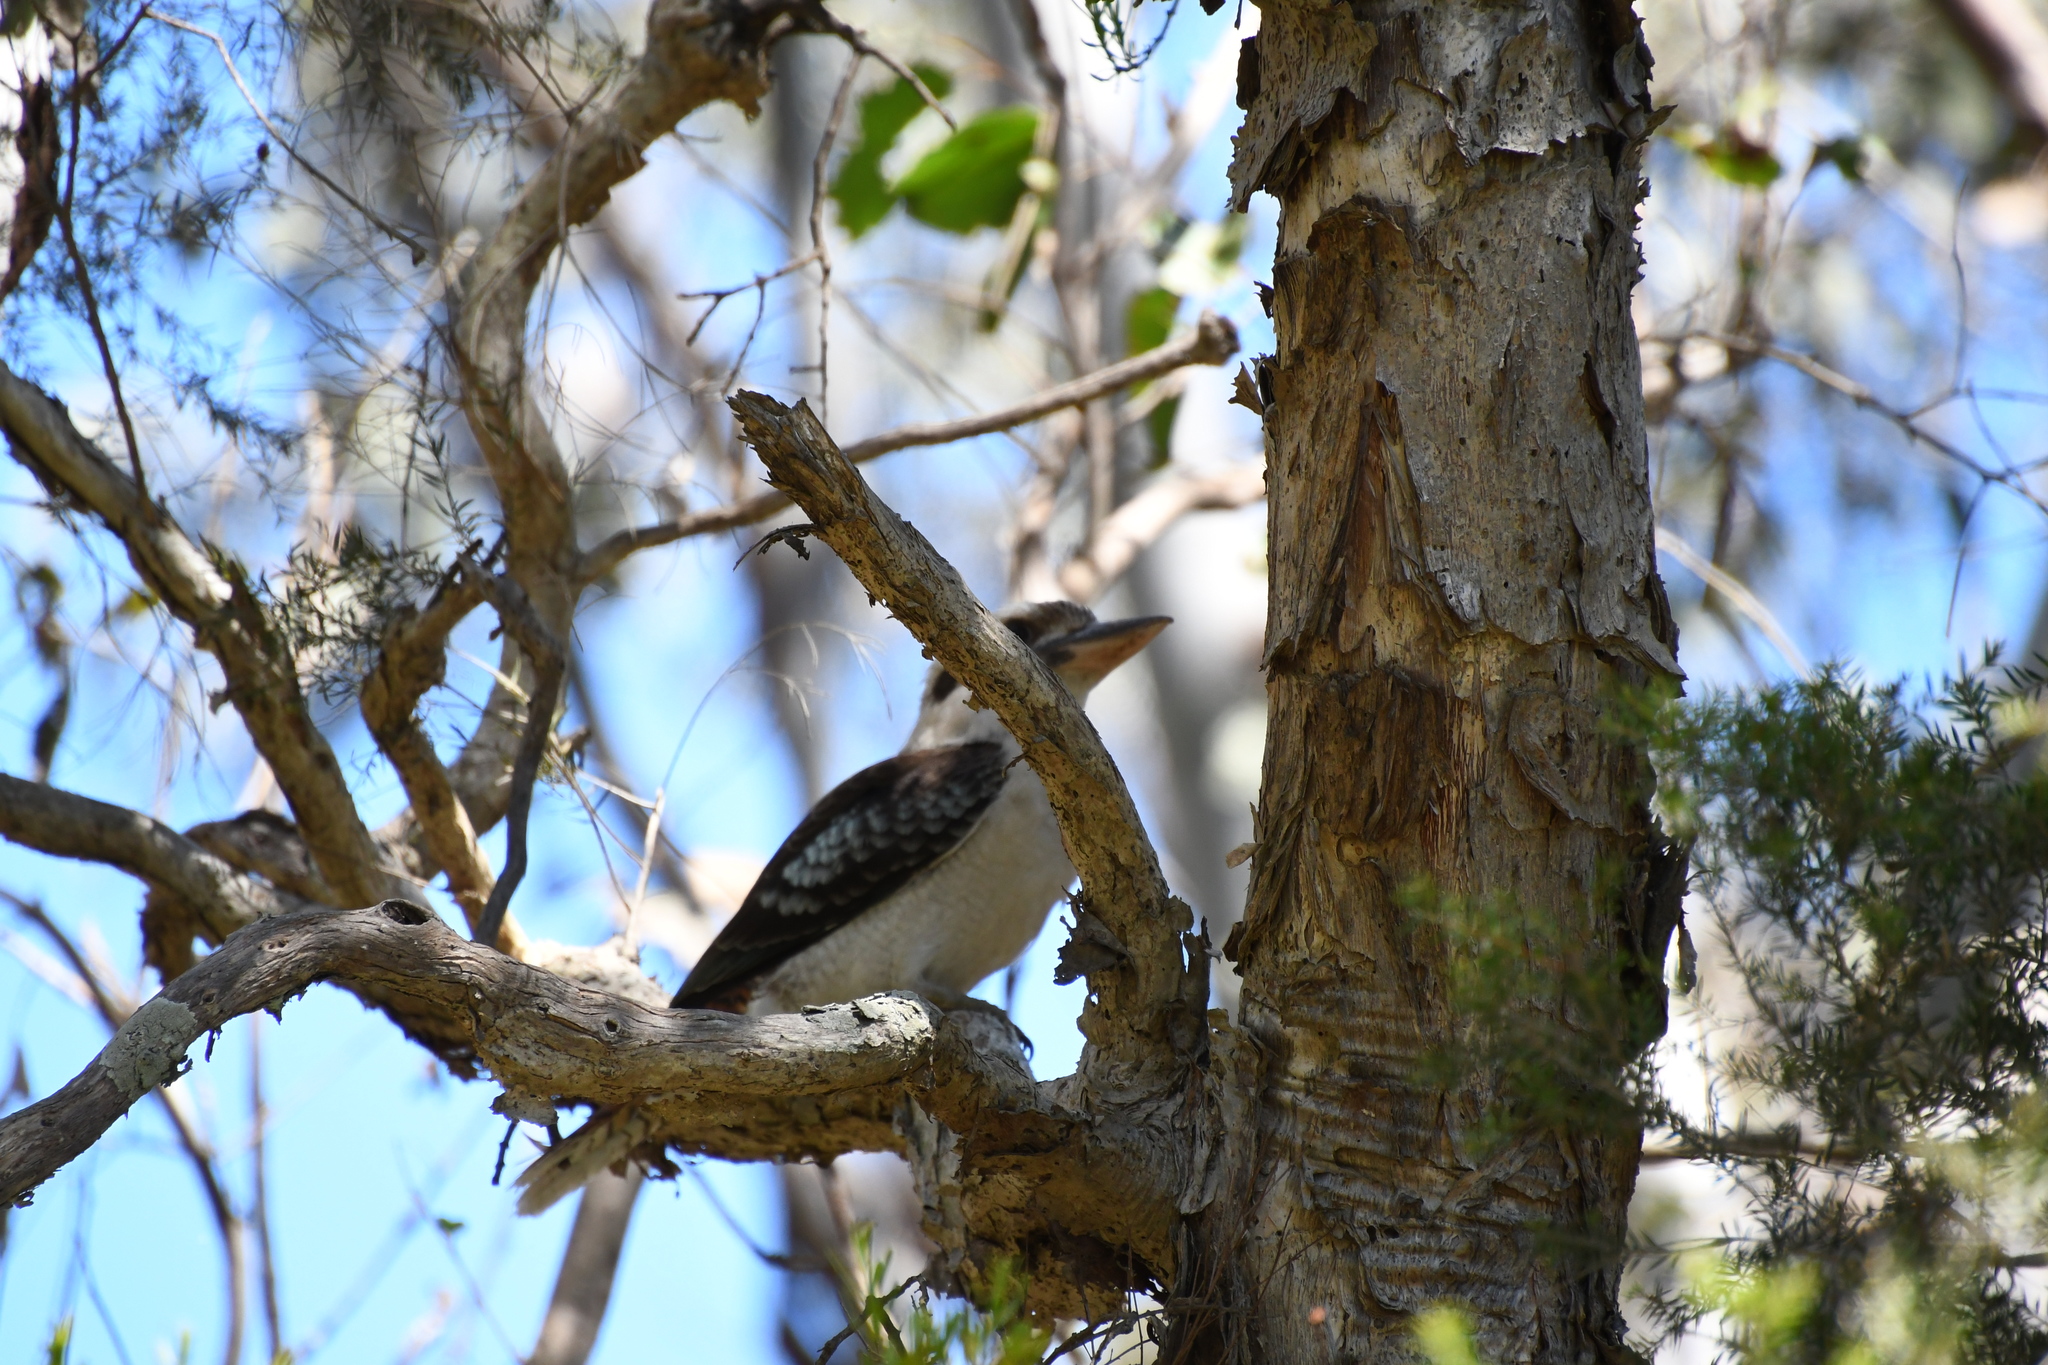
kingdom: Animalia
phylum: Chordata
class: Aves
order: Coraciiformes
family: Alcedinidae
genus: Dacelo
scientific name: Dacelo novaeguineae
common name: Laughing kookaburra
